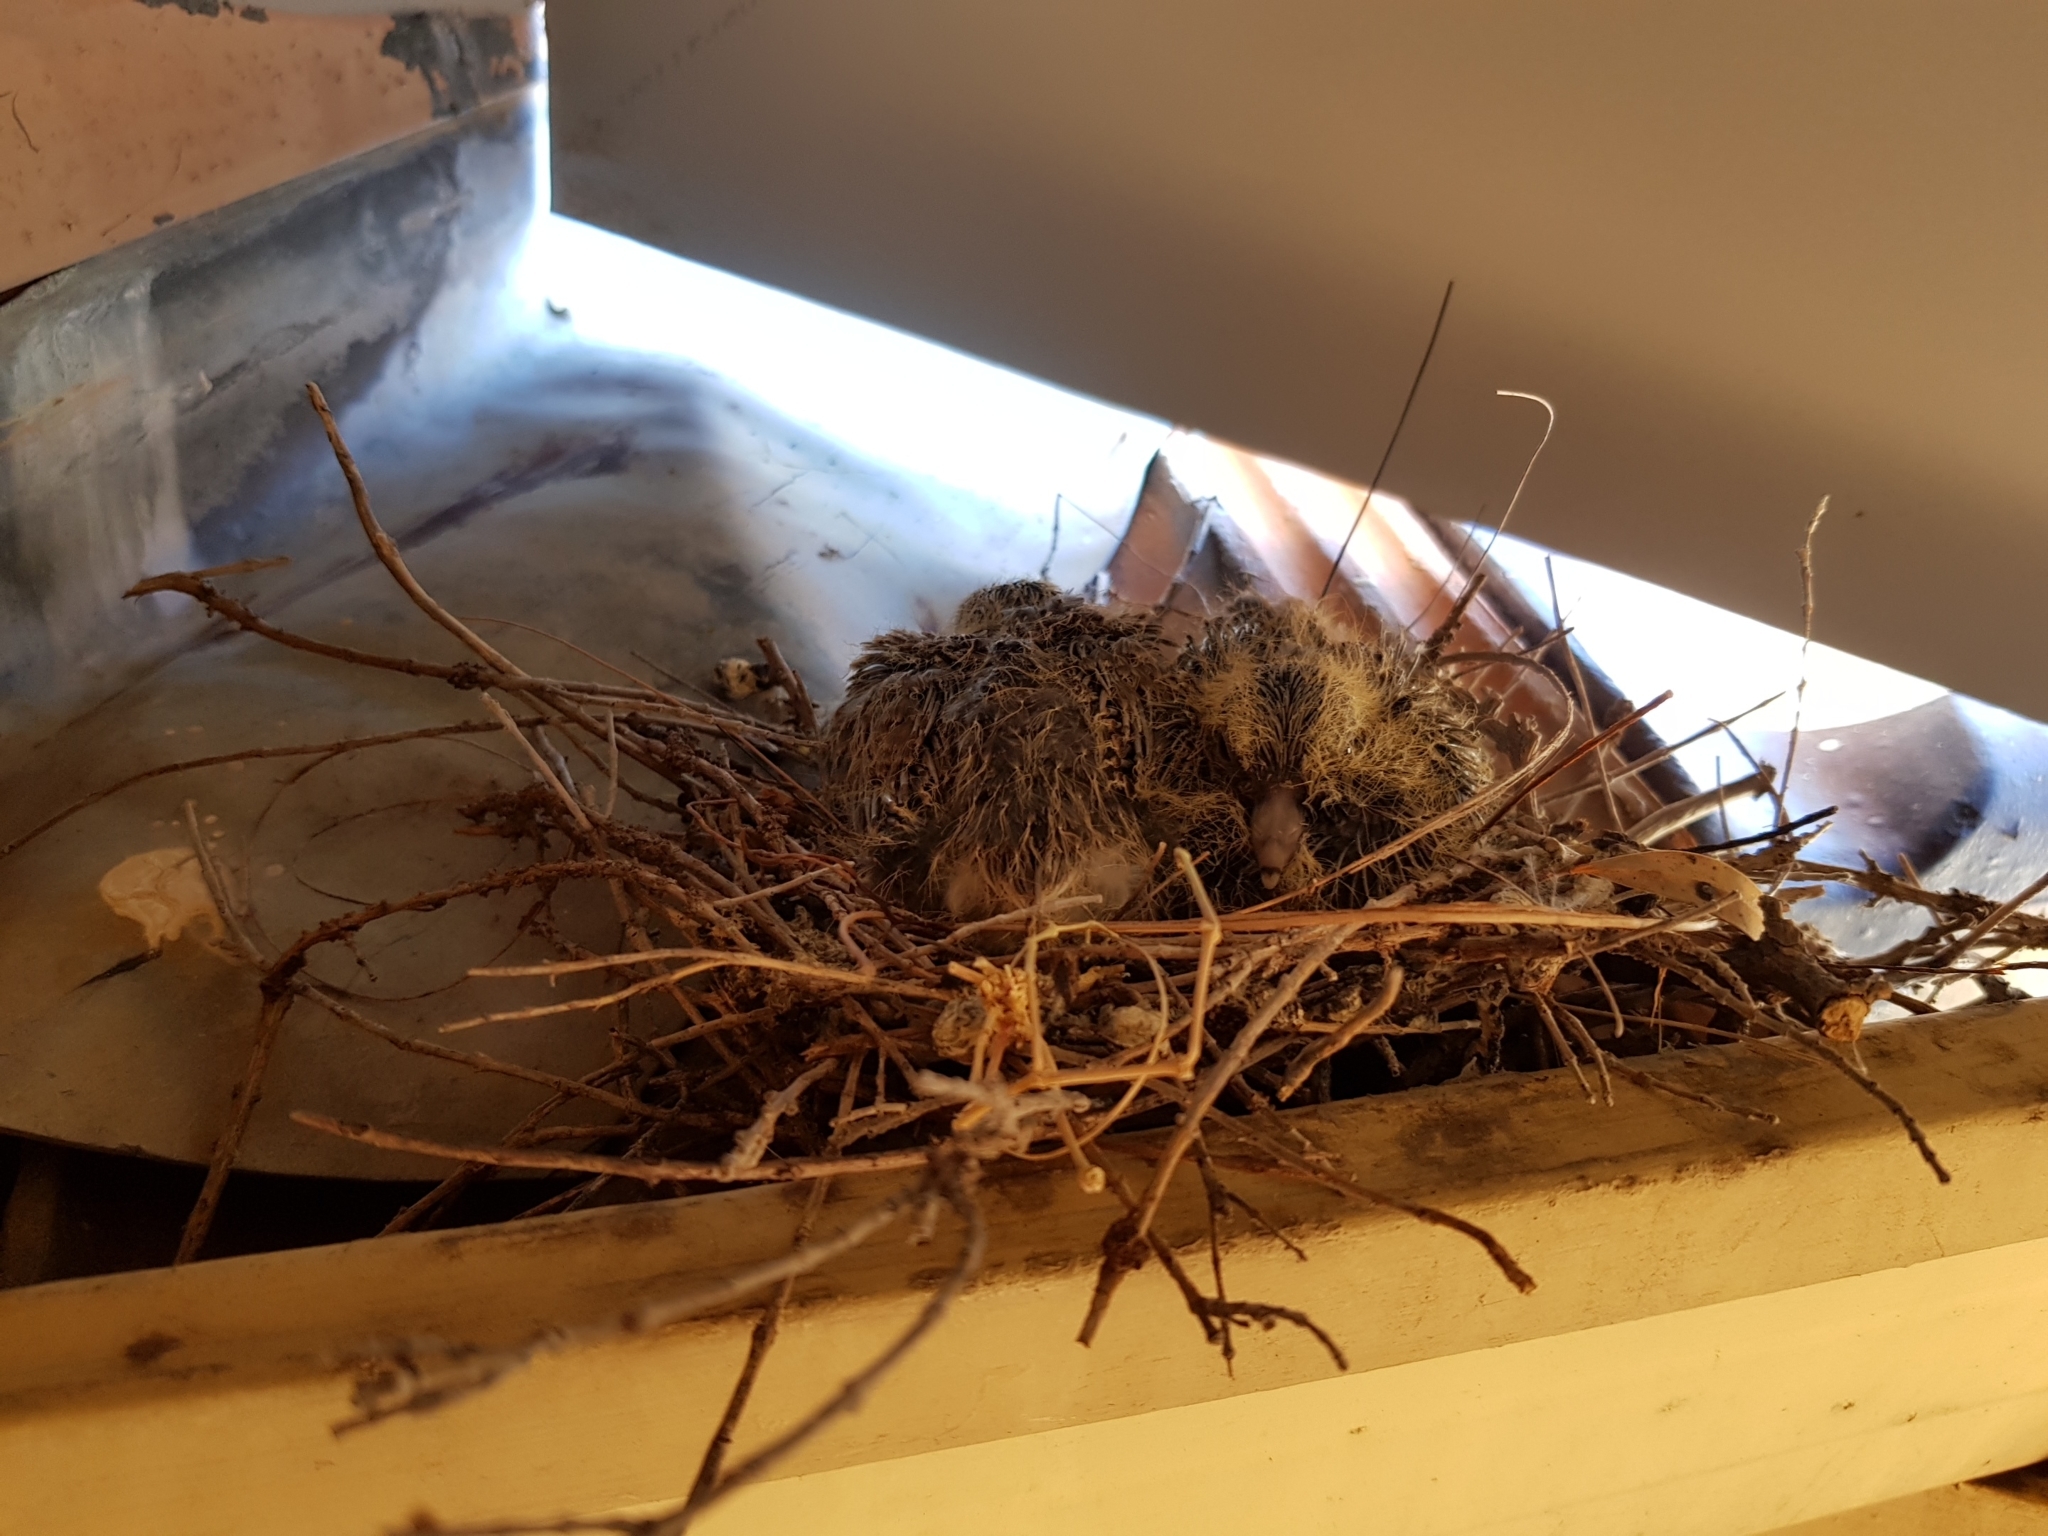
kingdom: Animalia
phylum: Chordata
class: Aves
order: Columbiformes
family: Columbidae
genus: Spilopelia
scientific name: Spilopelia senegalensis
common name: Laughing dove
